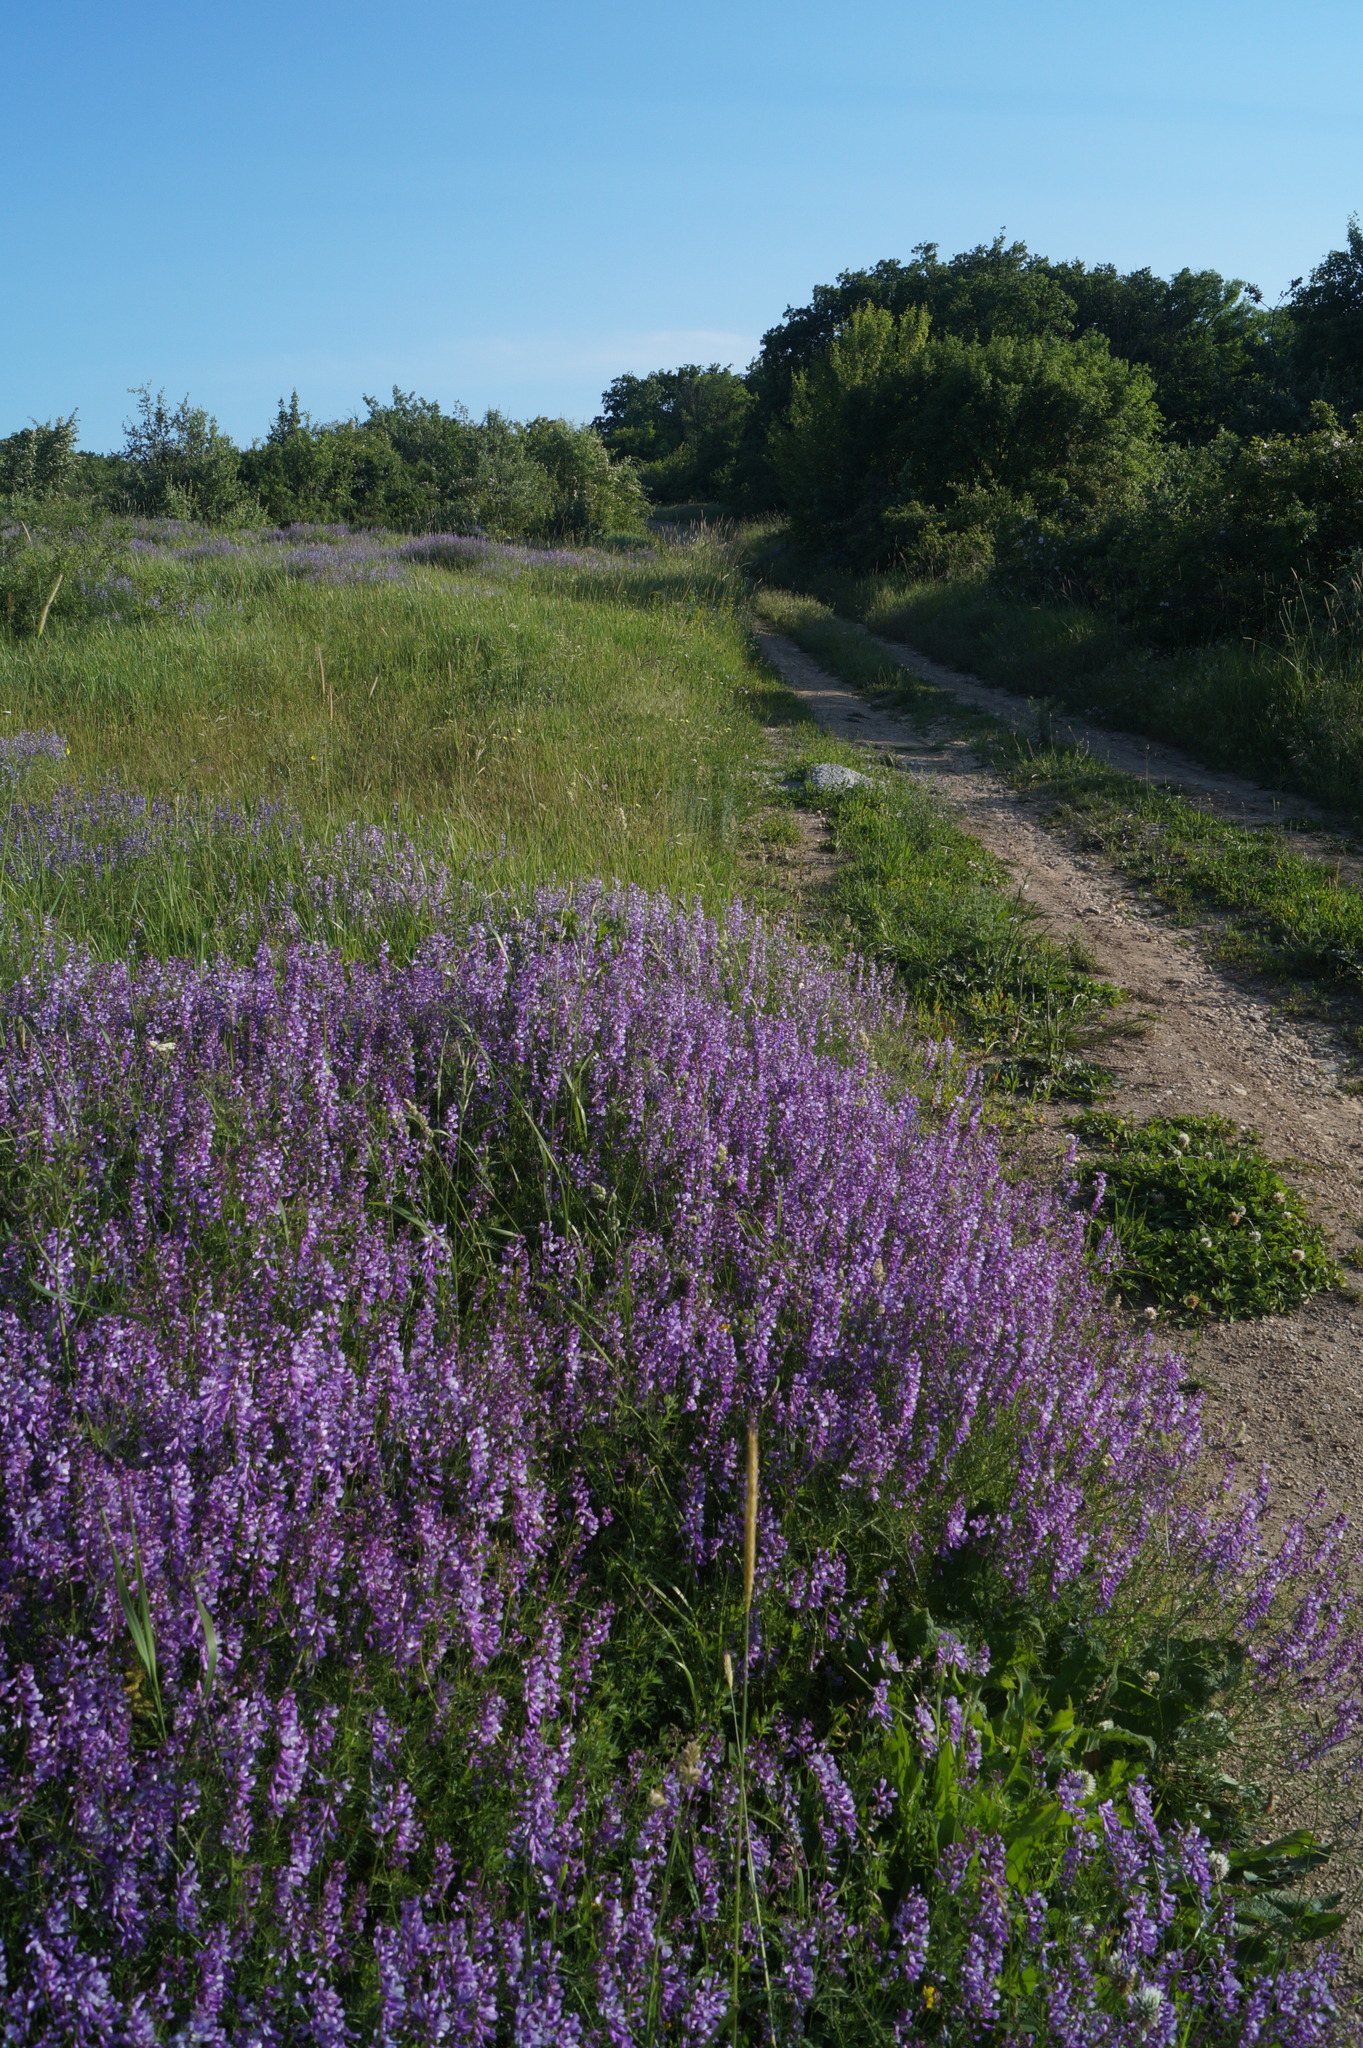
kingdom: Plantae
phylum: Tracheophyta
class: Magnoliopsida
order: Fabales
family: Fabaceae
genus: Vicia
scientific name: Vicia tenuifolia
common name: Fine-leaved vetch
